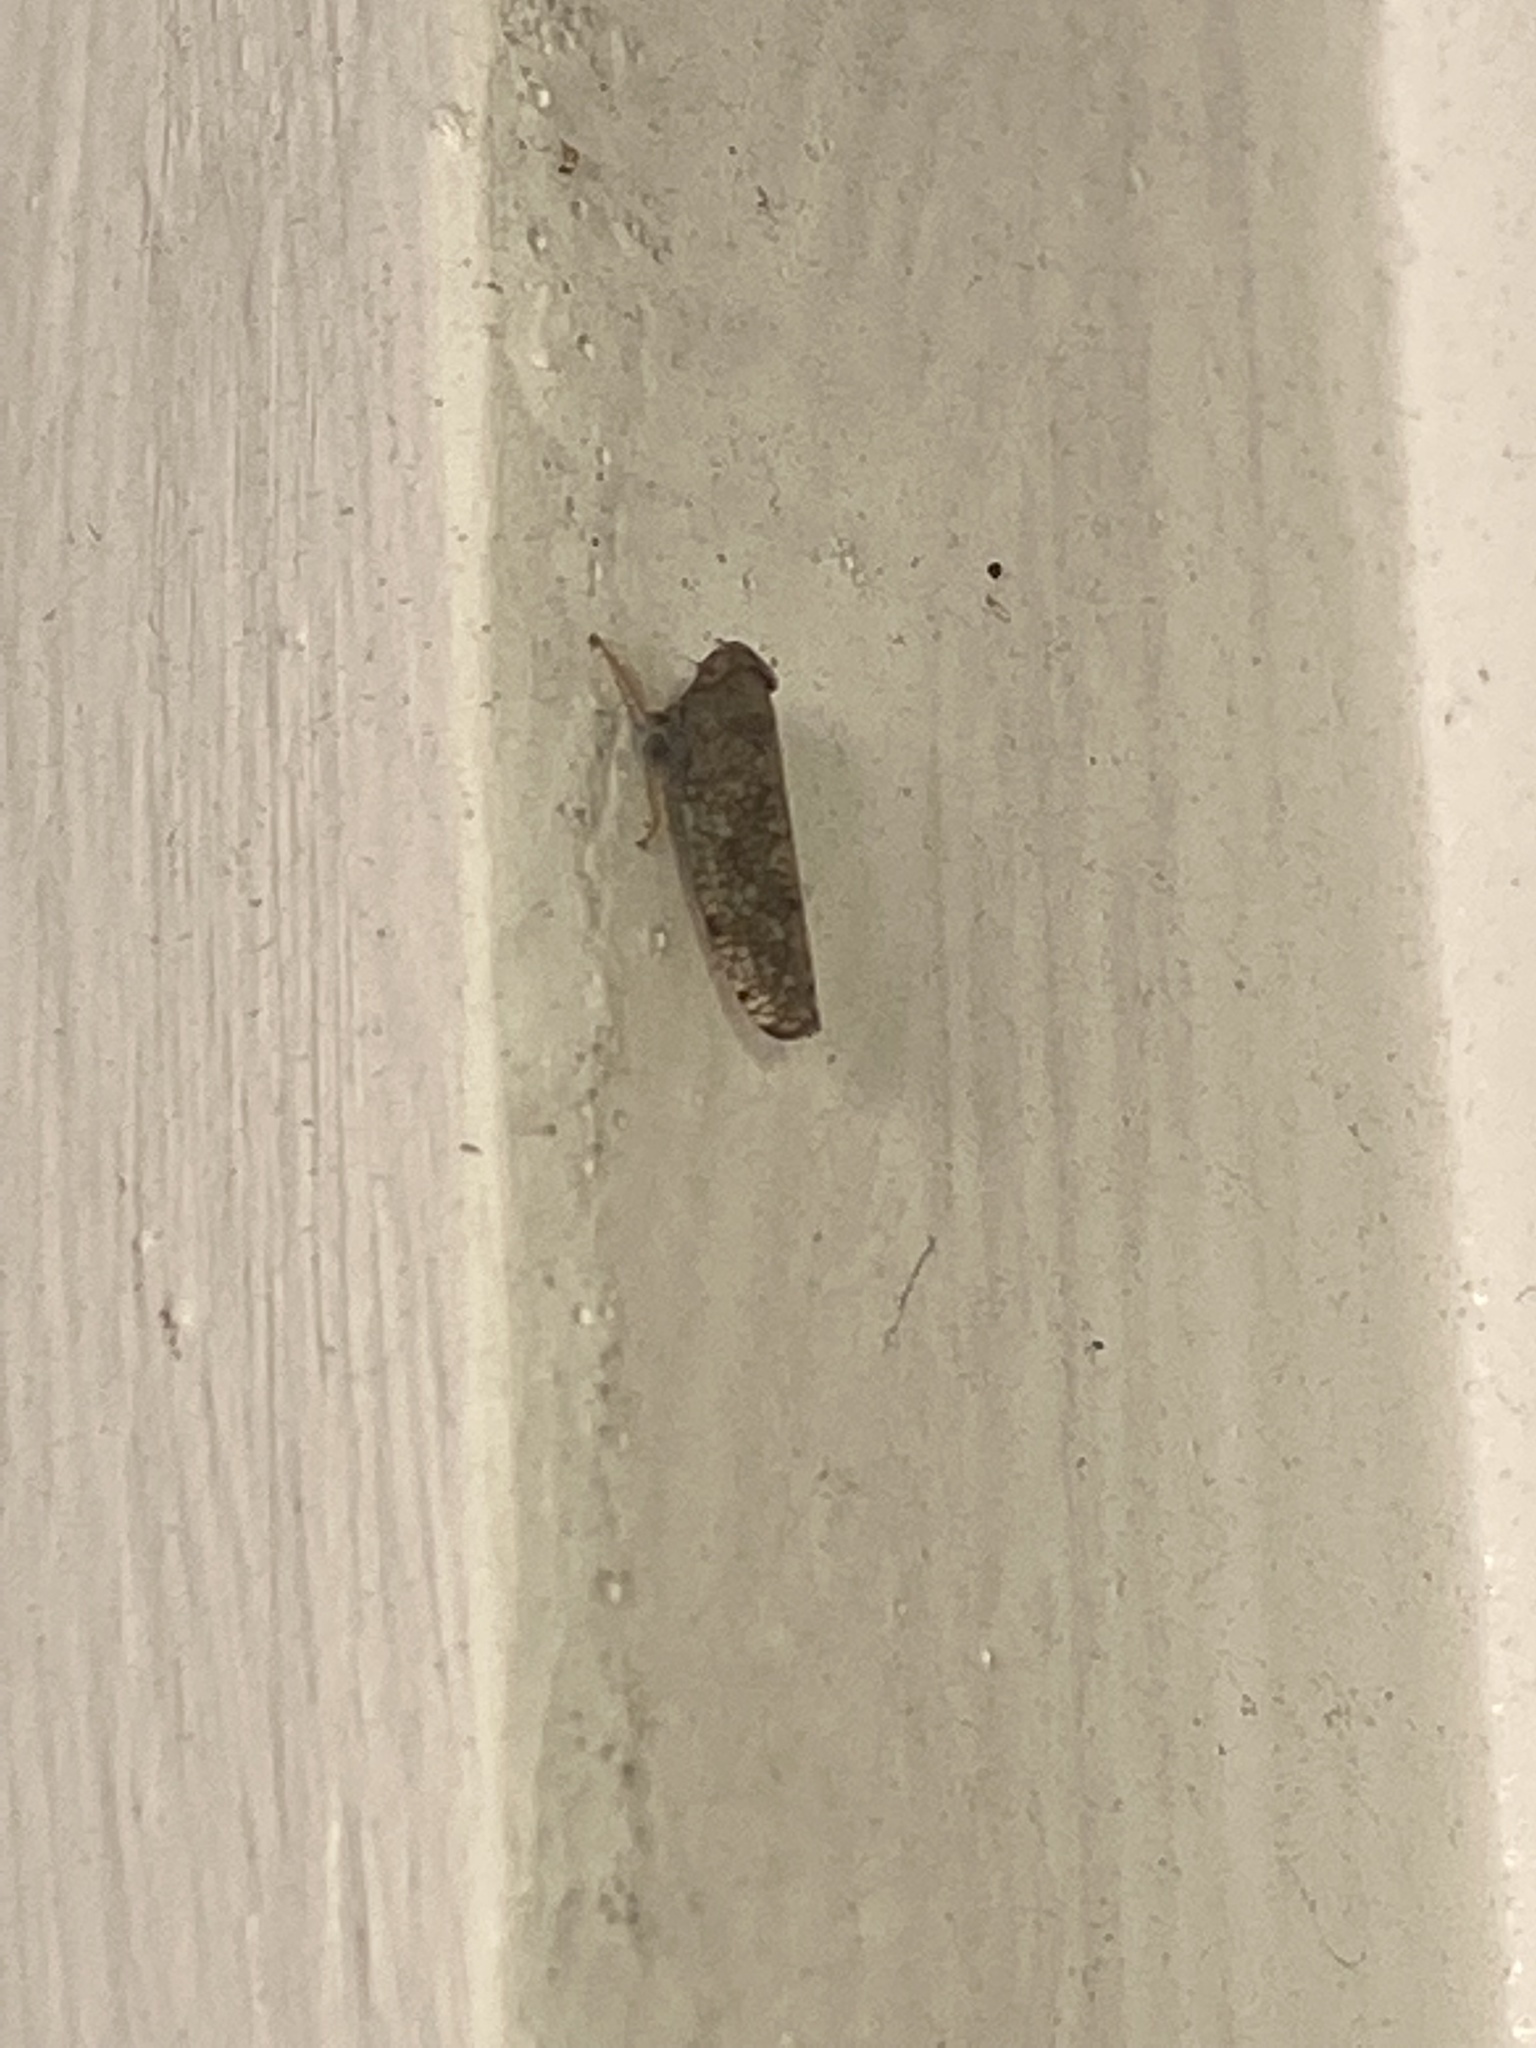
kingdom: Animalia
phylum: Arthropoda
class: Insecta
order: Hemiptera
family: Cicadellidae
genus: Orientus
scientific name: Orientus ishidae
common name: Japanese leafhopper
